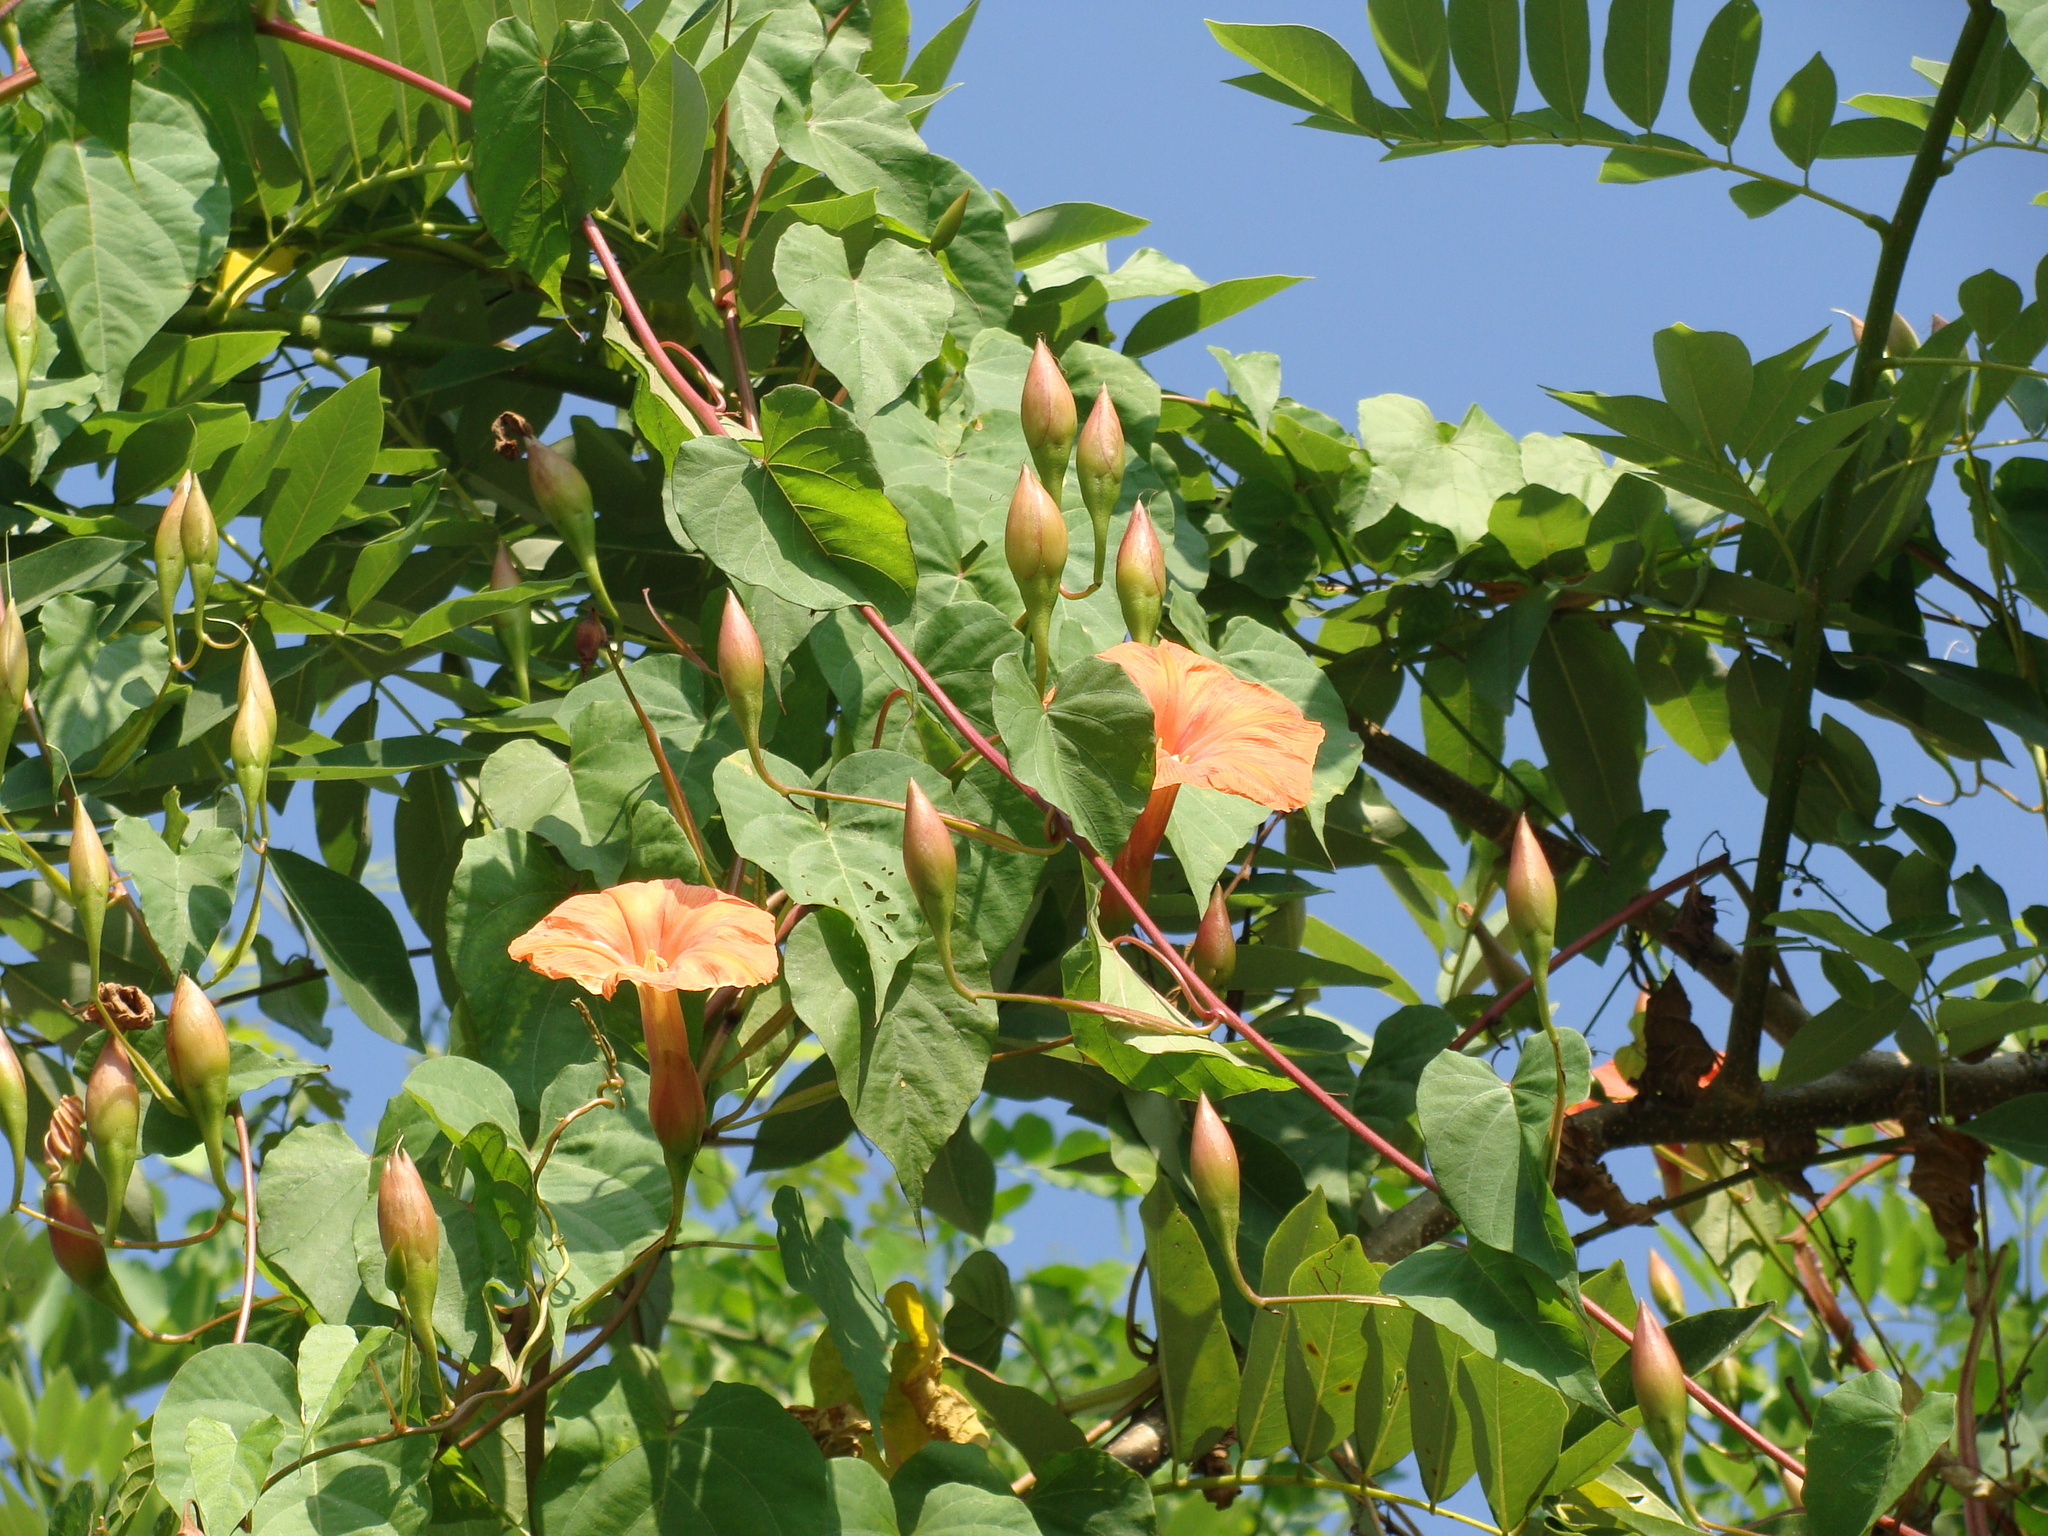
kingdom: Plantae
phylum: Tracheophyta
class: Magnoliopsida
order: Solanales
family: Convolvulaceae
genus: Operculina
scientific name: Operculina pteripes
